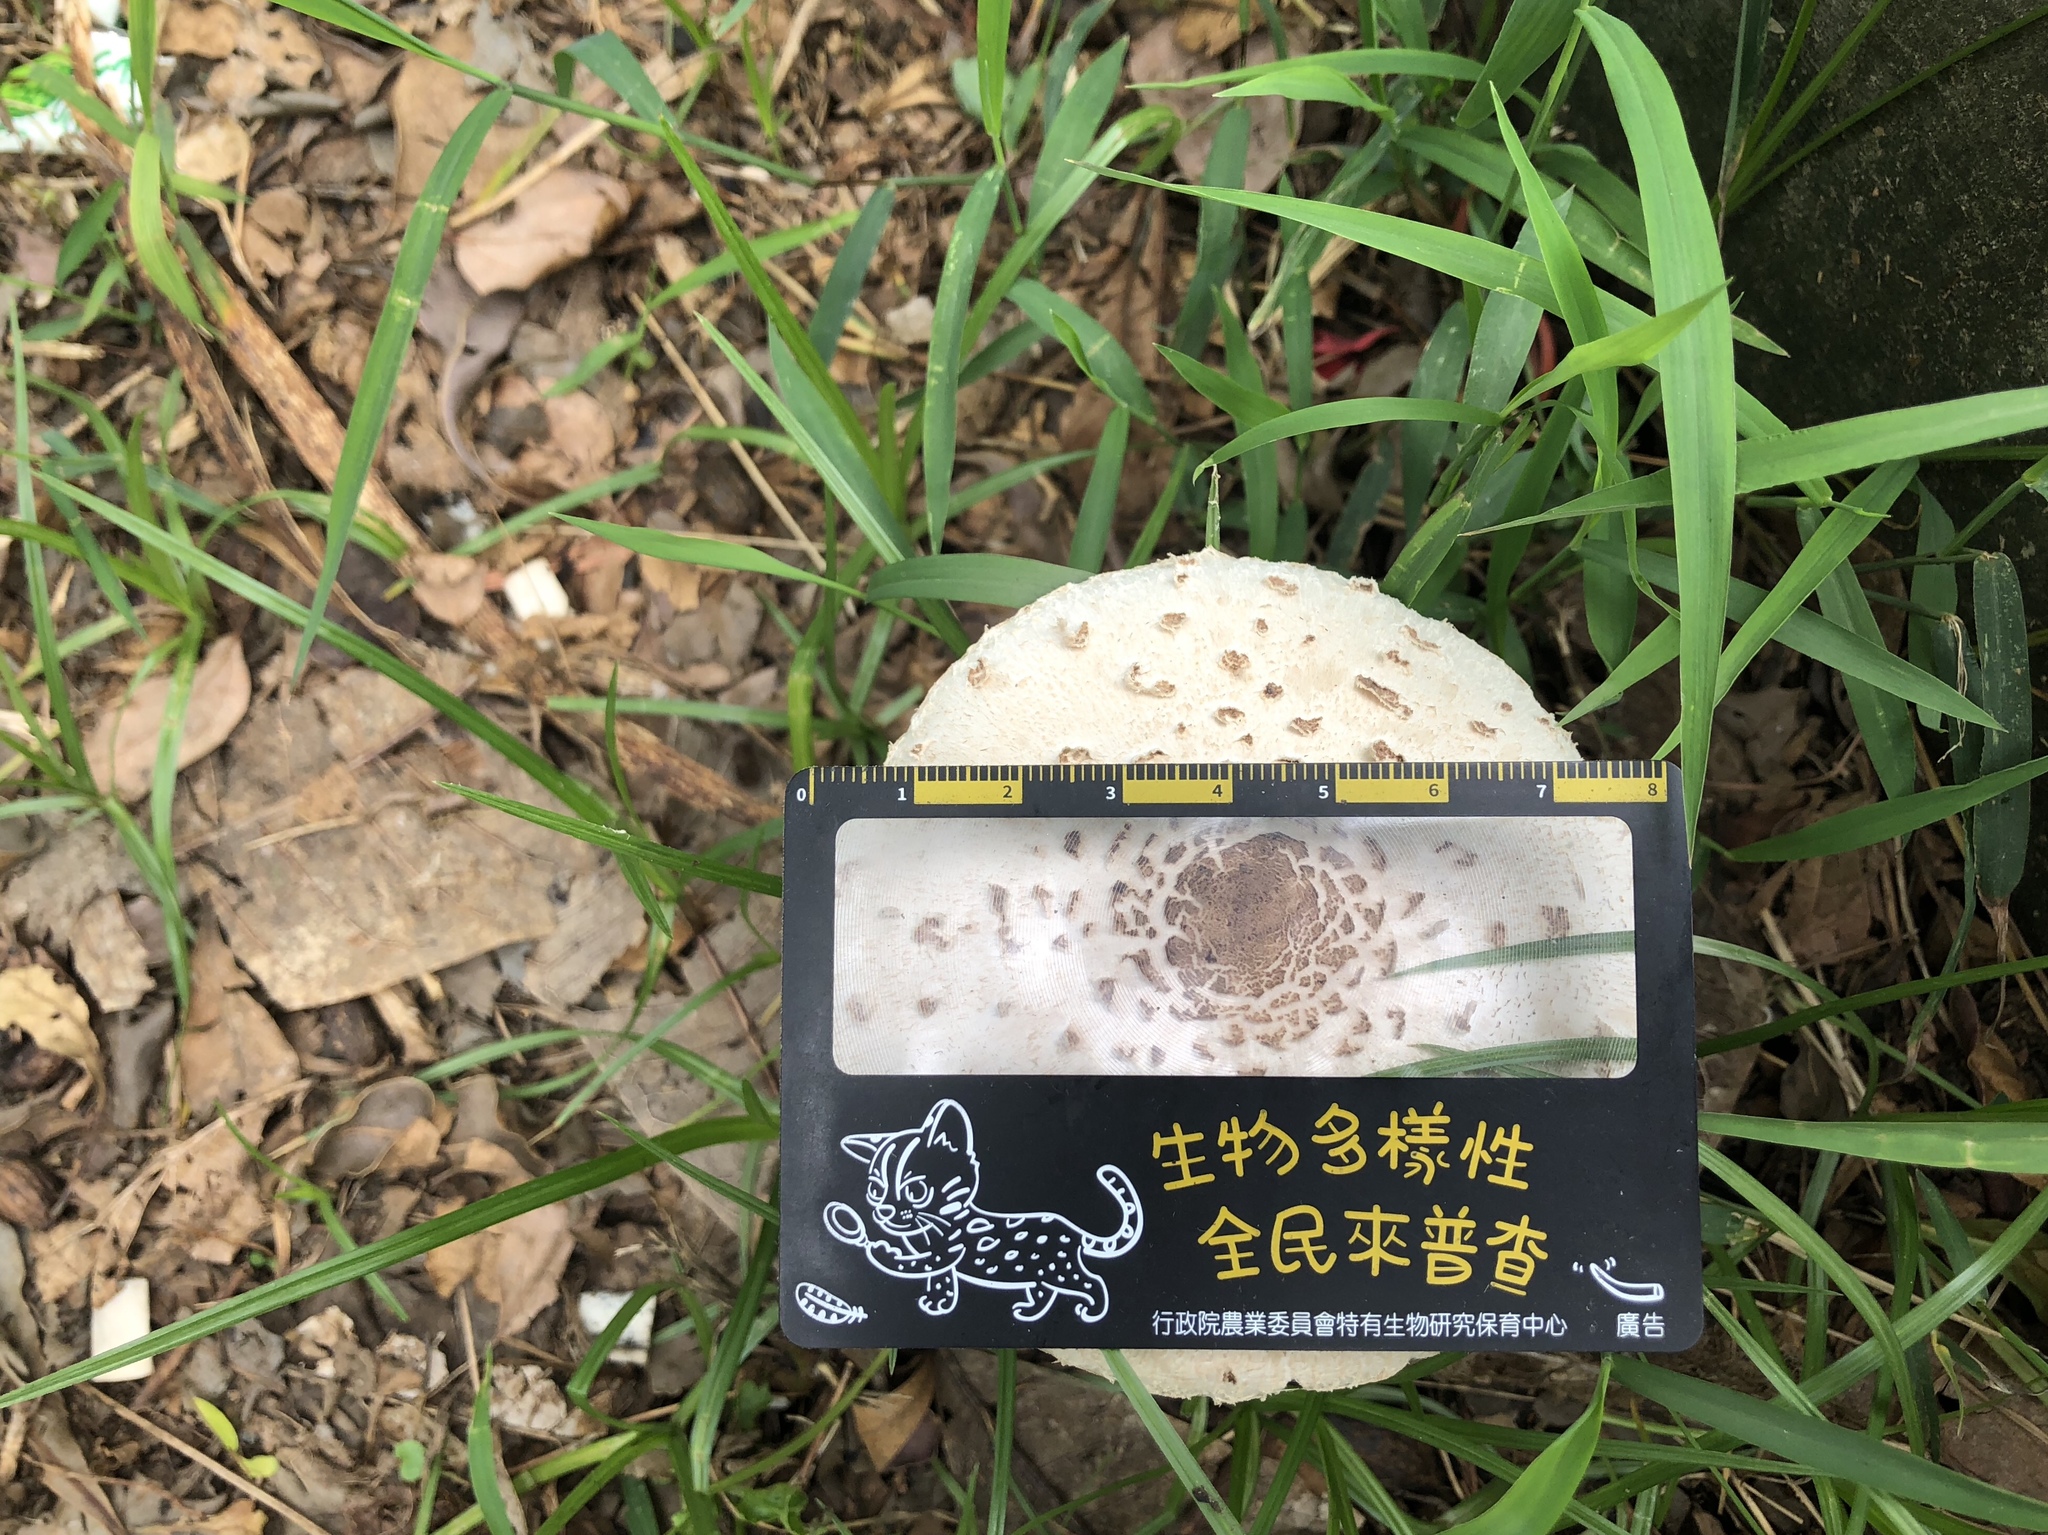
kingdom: Fungi
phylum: Basidiomycota
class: Agaricomycetes
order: Agaricales
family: Agaricaceae
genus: Chlorophyllum
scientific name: Chlorophyllum molybdites
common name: False parasol
